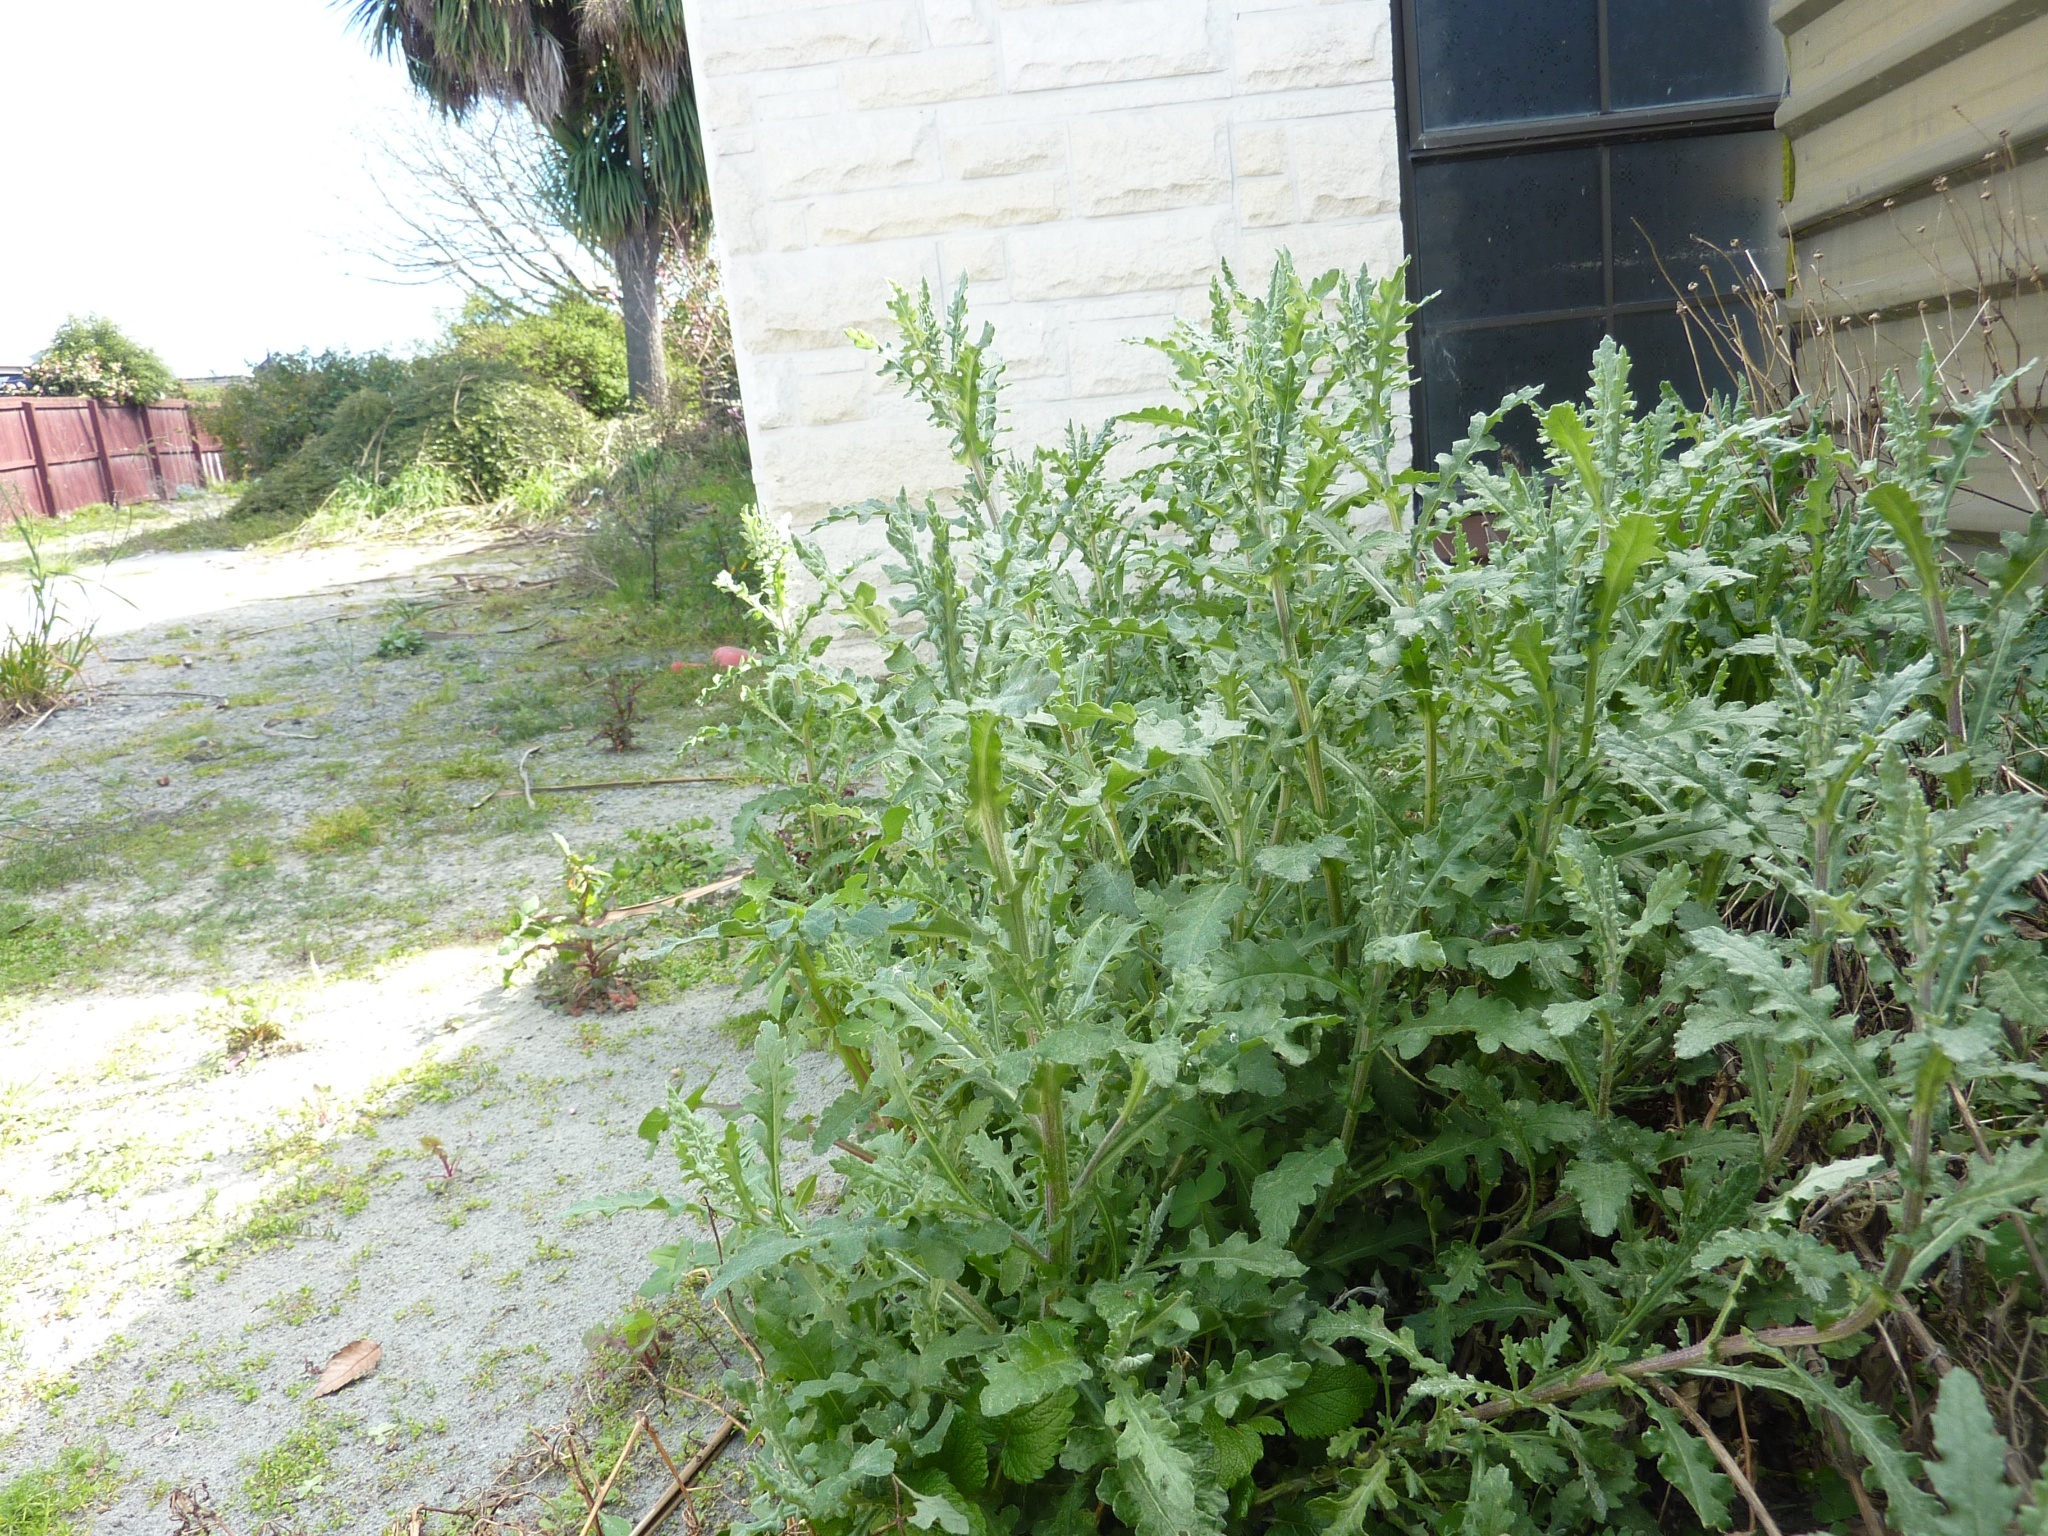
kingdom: Plantae
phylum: Tracheophyta
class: Magnoliopsida
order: Asterales
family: Asteraceae
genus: Senecio
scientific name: Senecio glomeratus
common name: Cutleaf burnweed
